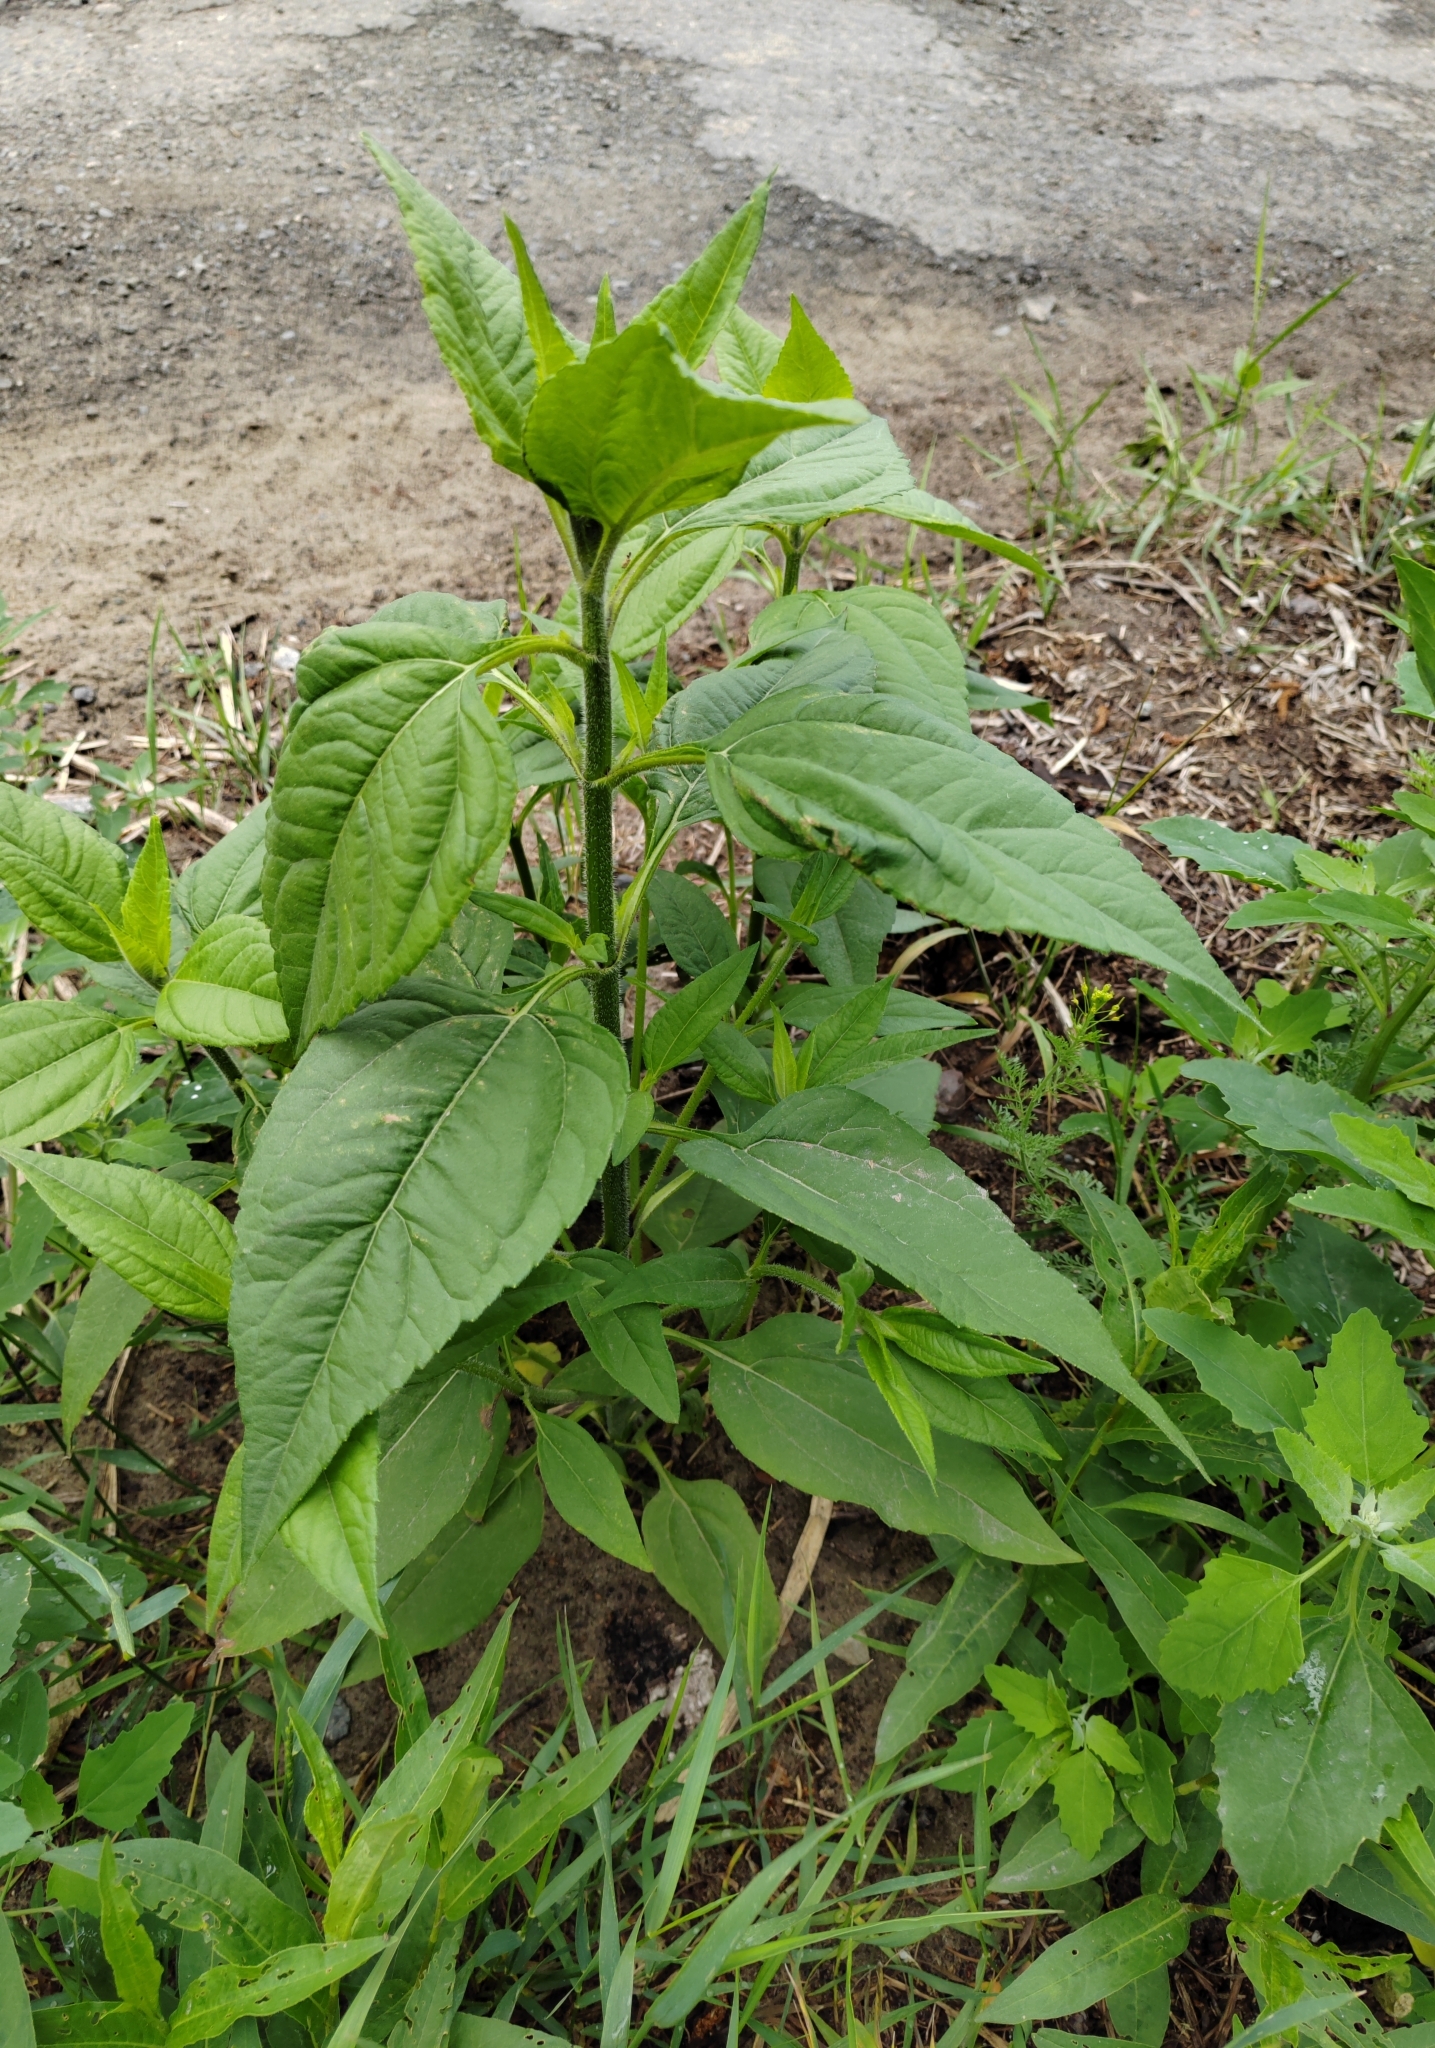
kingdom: Plantae
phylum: Tracheophyta
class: Magnoliopsida
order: Asterales
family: Asteraceae
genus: Helianthus
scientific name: Helianthus tuberosus
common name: Jerusalem artichoke
